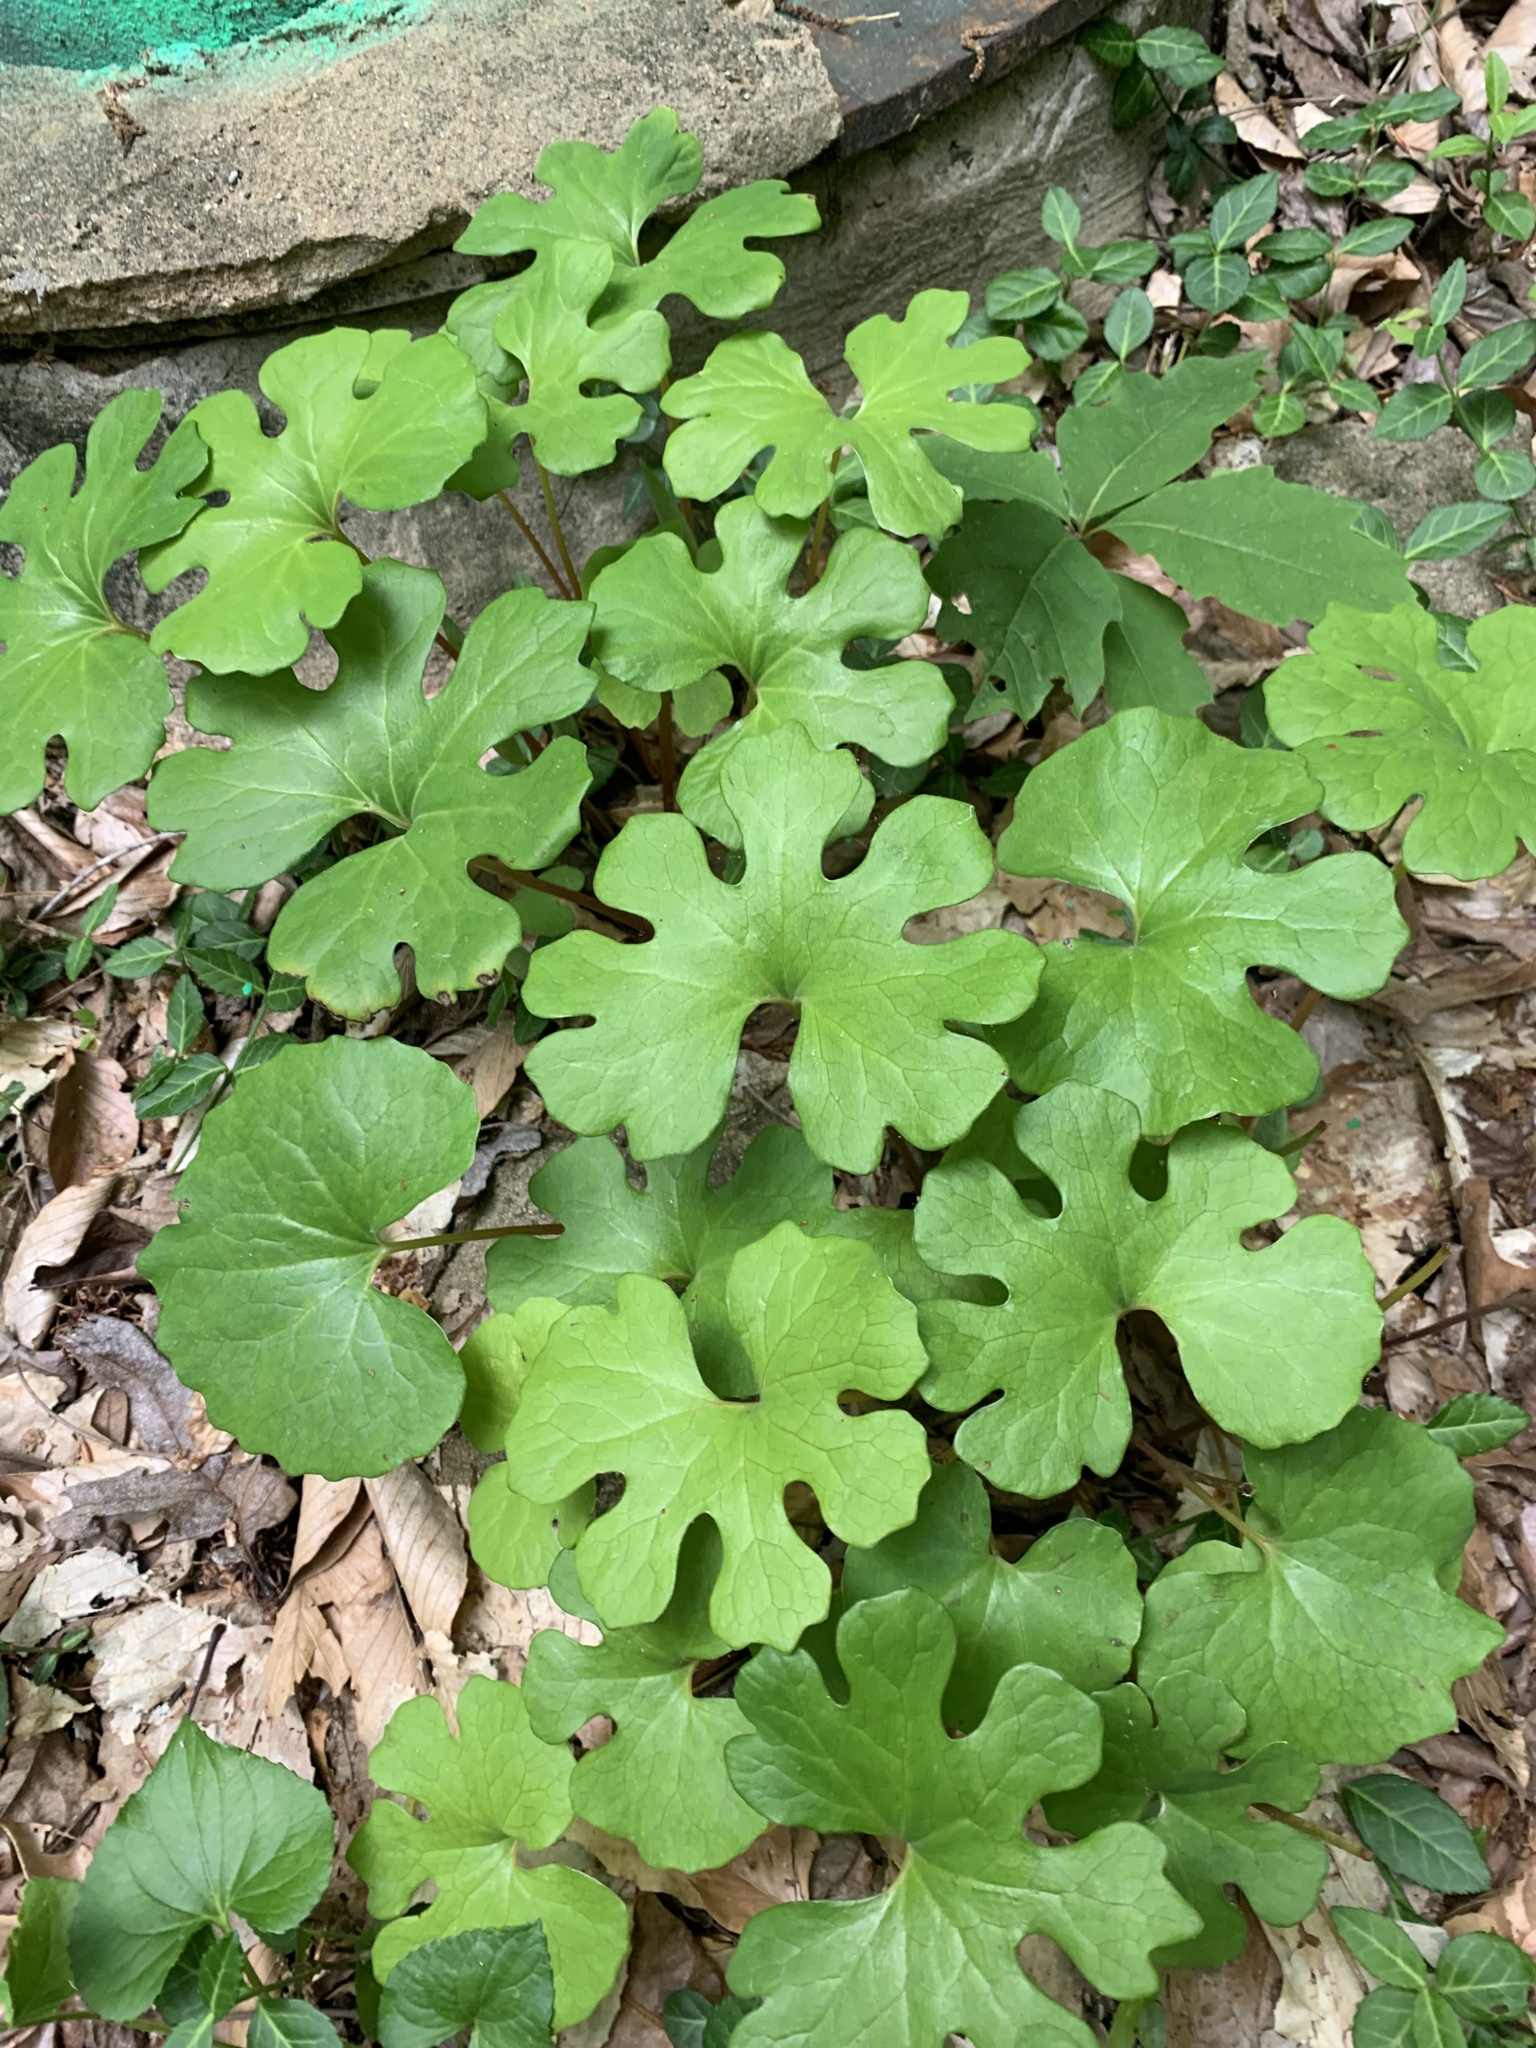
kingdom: Plantae
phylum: Tracheophyta
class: Magnoliopsida
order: Ranunculales
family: Papaveraceae
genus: Sanguinaria
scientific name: Sanguinaria canadensis
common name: Bloodroot
